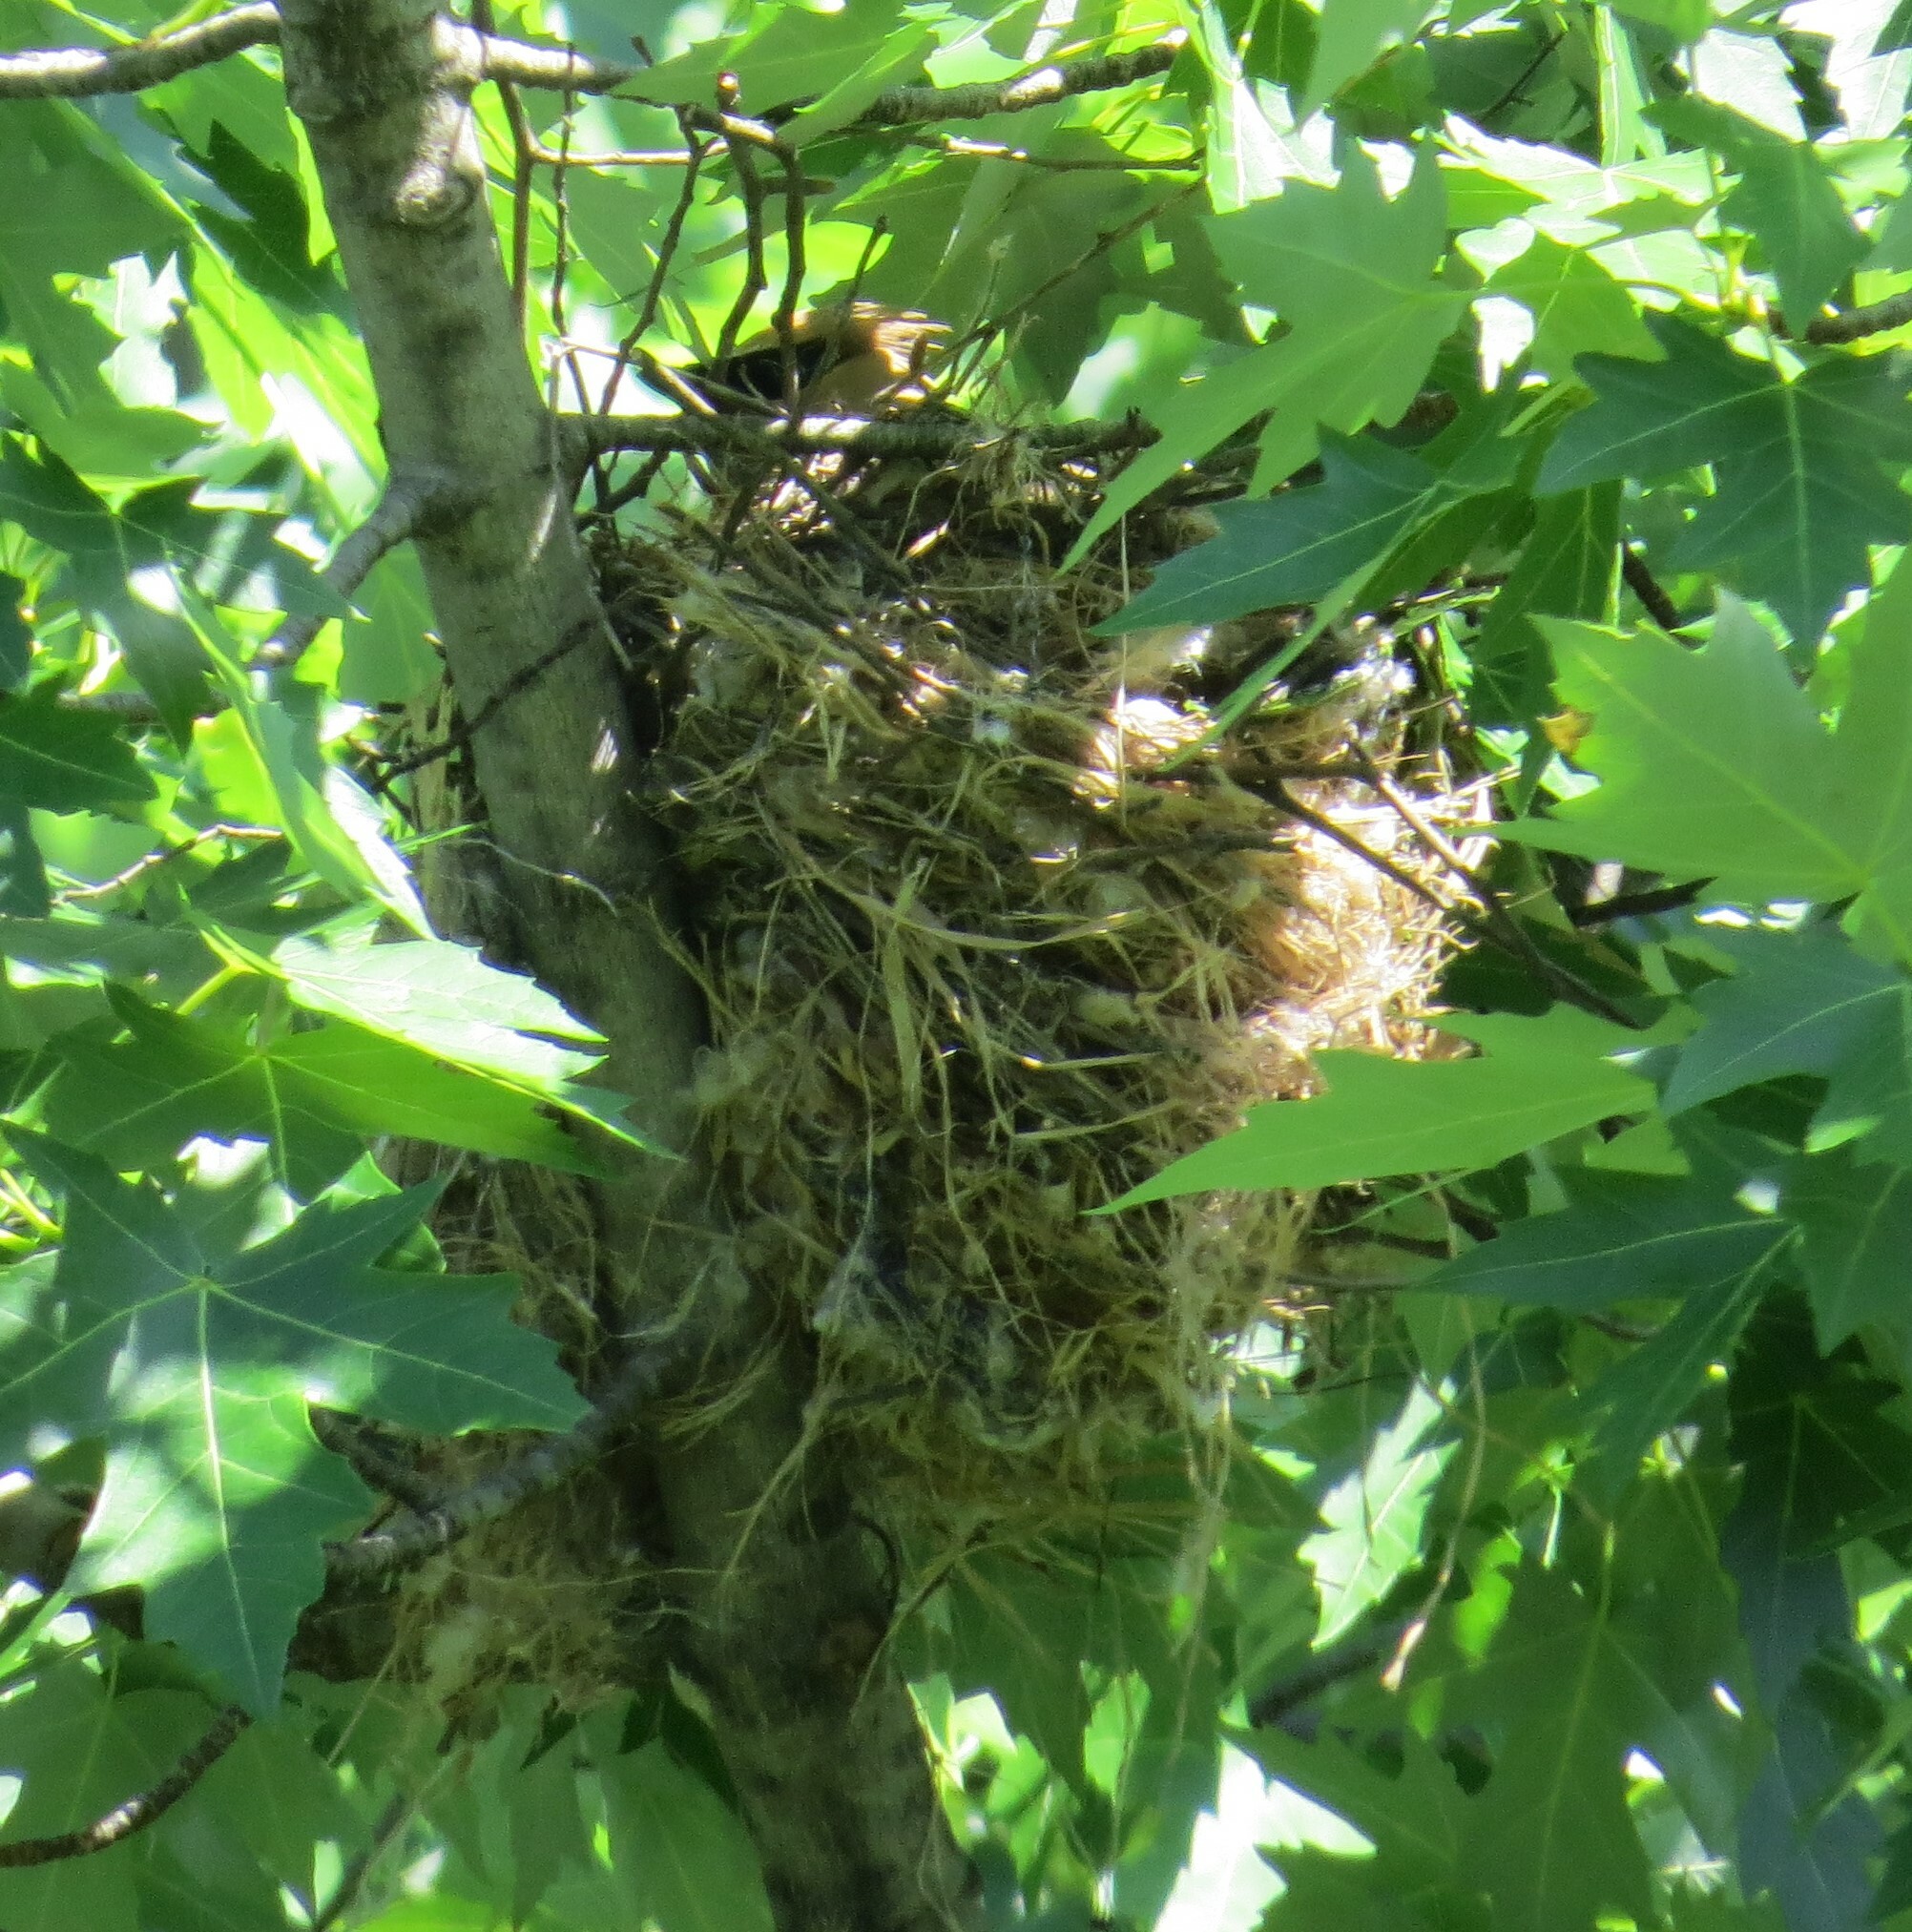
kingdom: Animalia
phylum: Chordata
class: Aves
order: Passeriformes
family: Bombycillidae
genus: Bombycilla
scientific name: Bombycilla cedrorum
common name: Cedar waxwing
